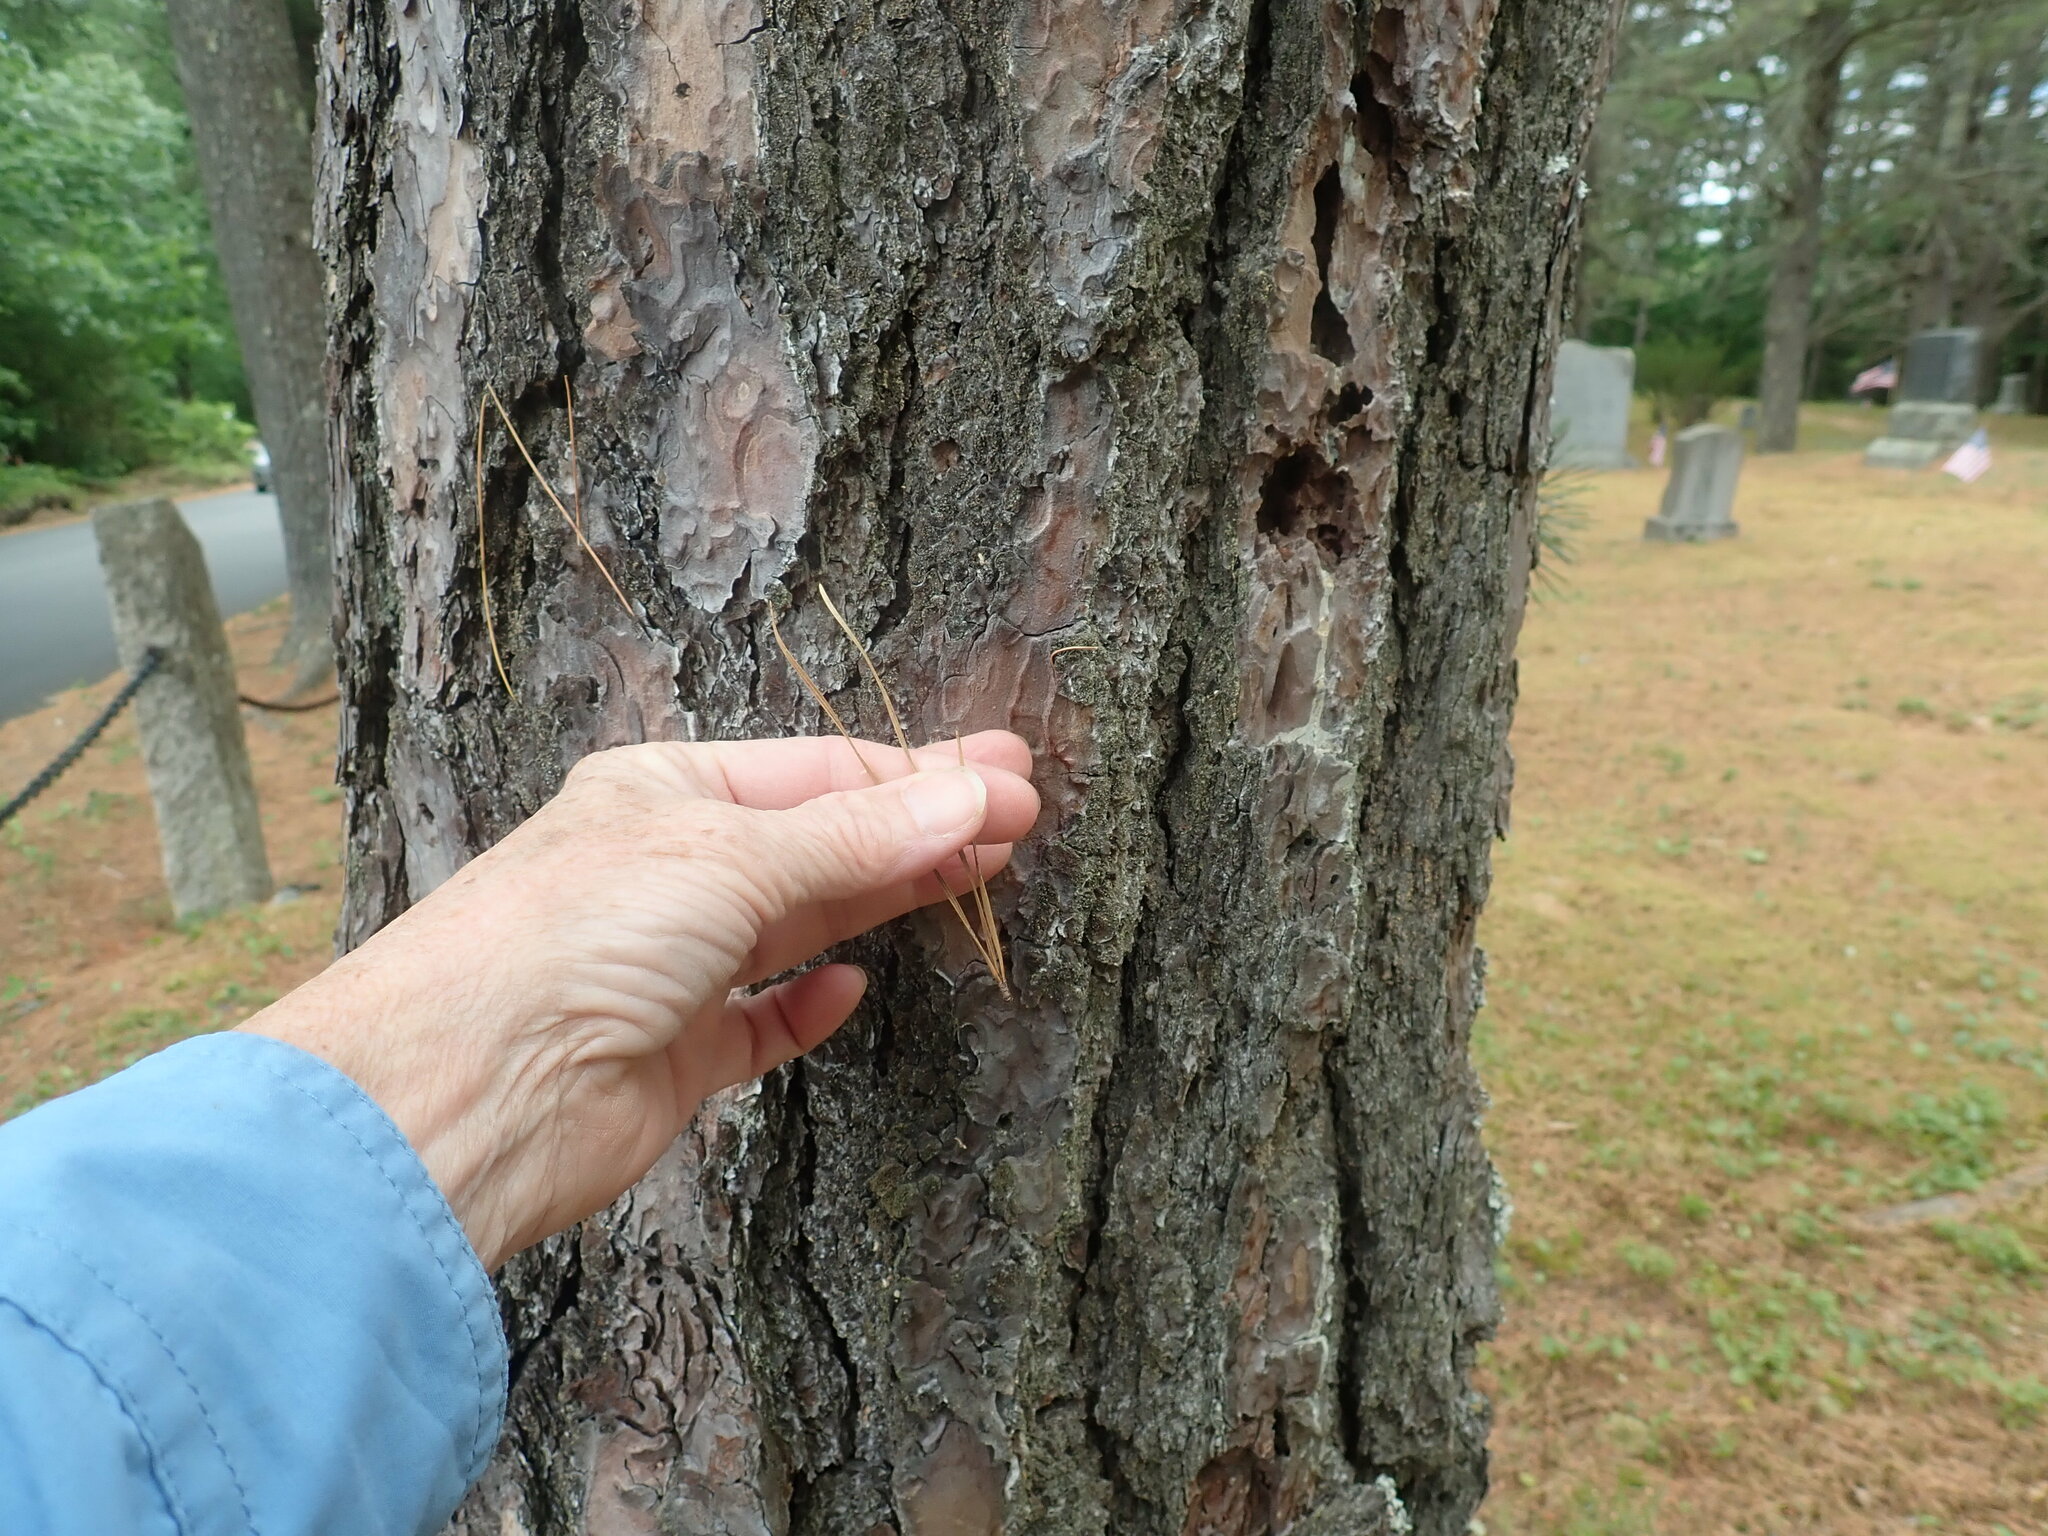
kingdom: Plantae
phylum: Tracheophyta
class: Pinopsida
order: Pinales
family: Pinaceae
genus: Pinus
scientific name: Pinus rigida
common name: Pitch pine
